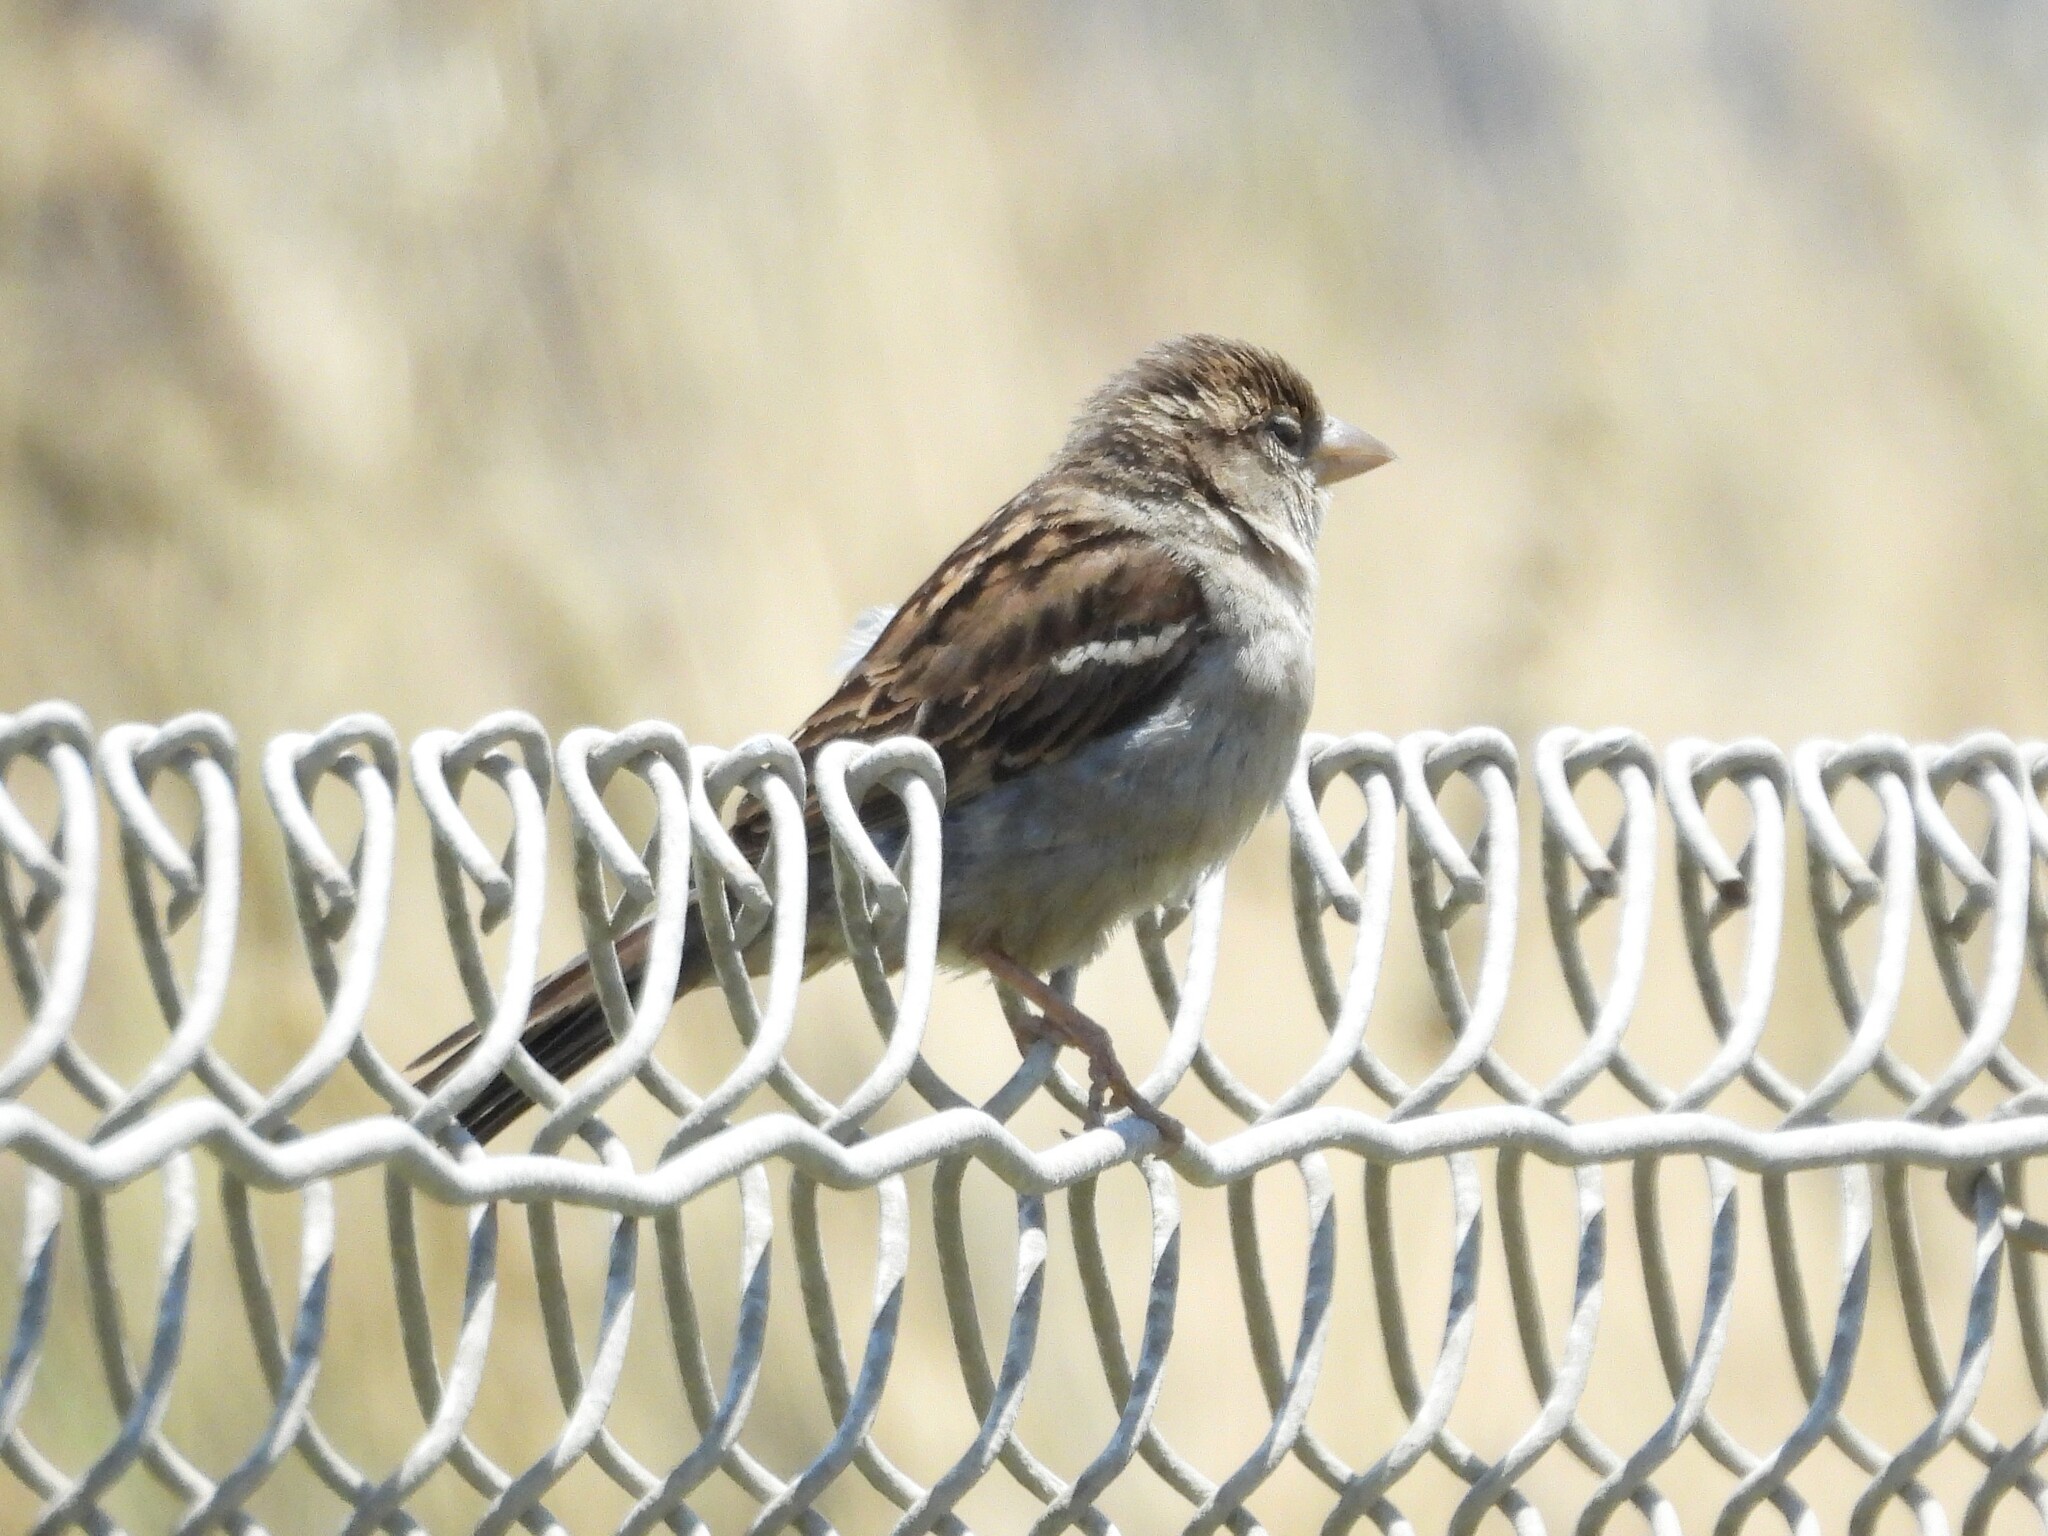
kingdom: Animalia
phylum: Chordata
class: Aves
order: Passeriformes
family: Passeridae
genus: Passer
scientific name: Passer domesticus
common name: House sparrow
